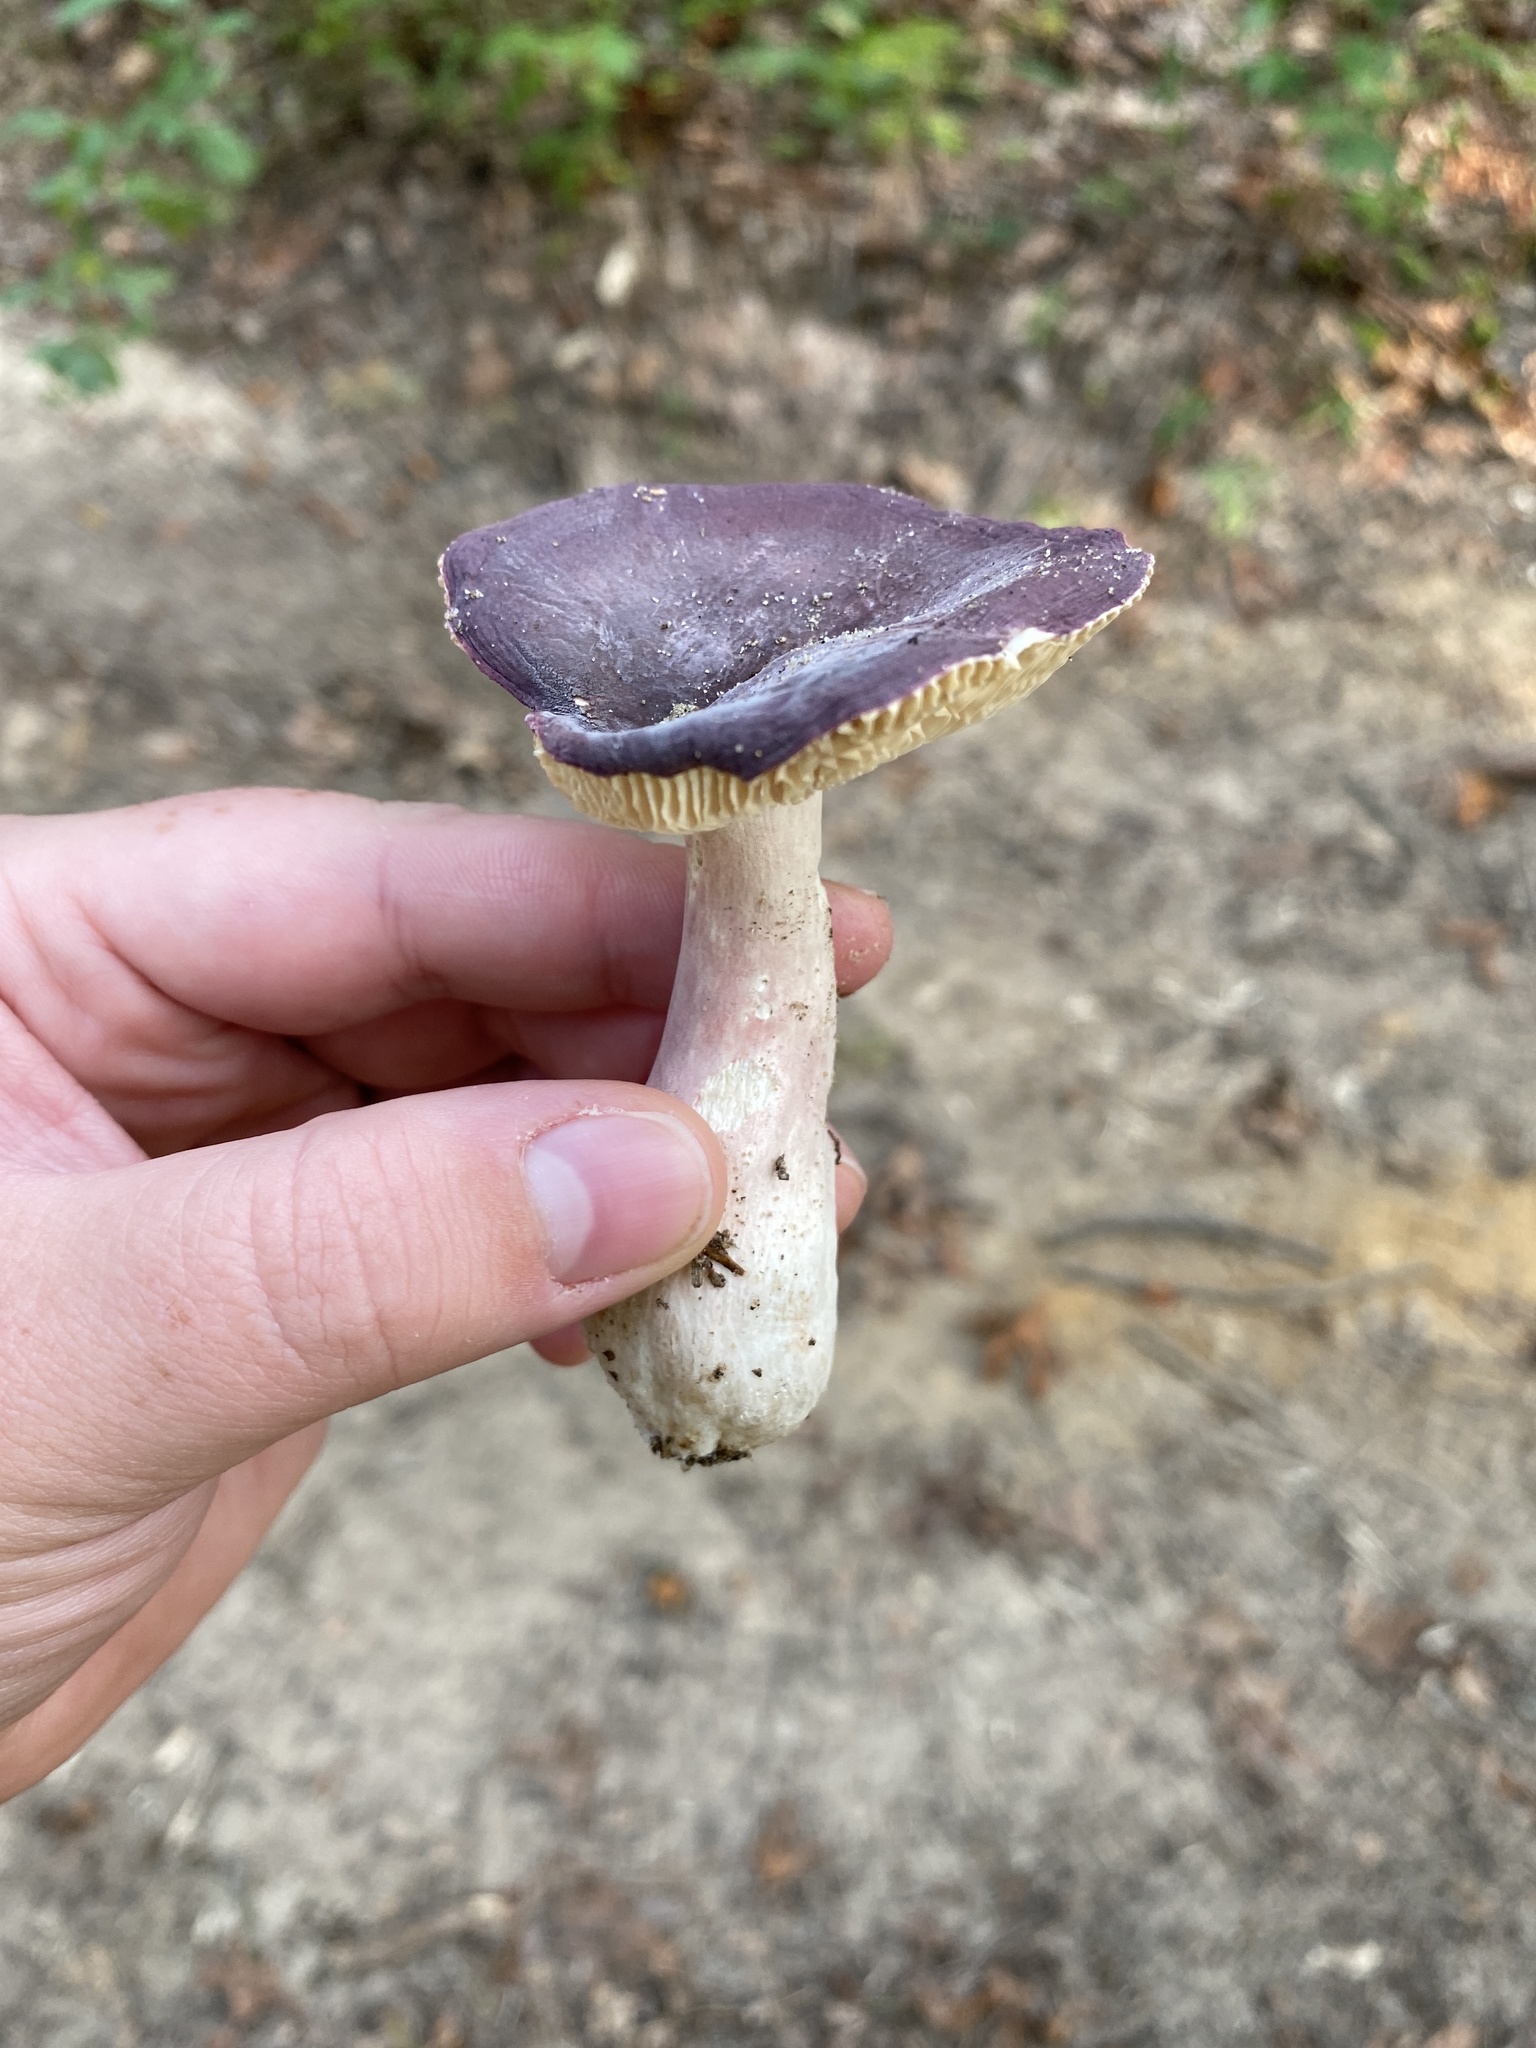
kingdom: Fungi
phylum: Basidiomycota
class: Agaricomycetes
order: Russulales
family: Russulaceae
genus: Russula
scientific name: Russula mariae
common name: Purple-bloom russula
